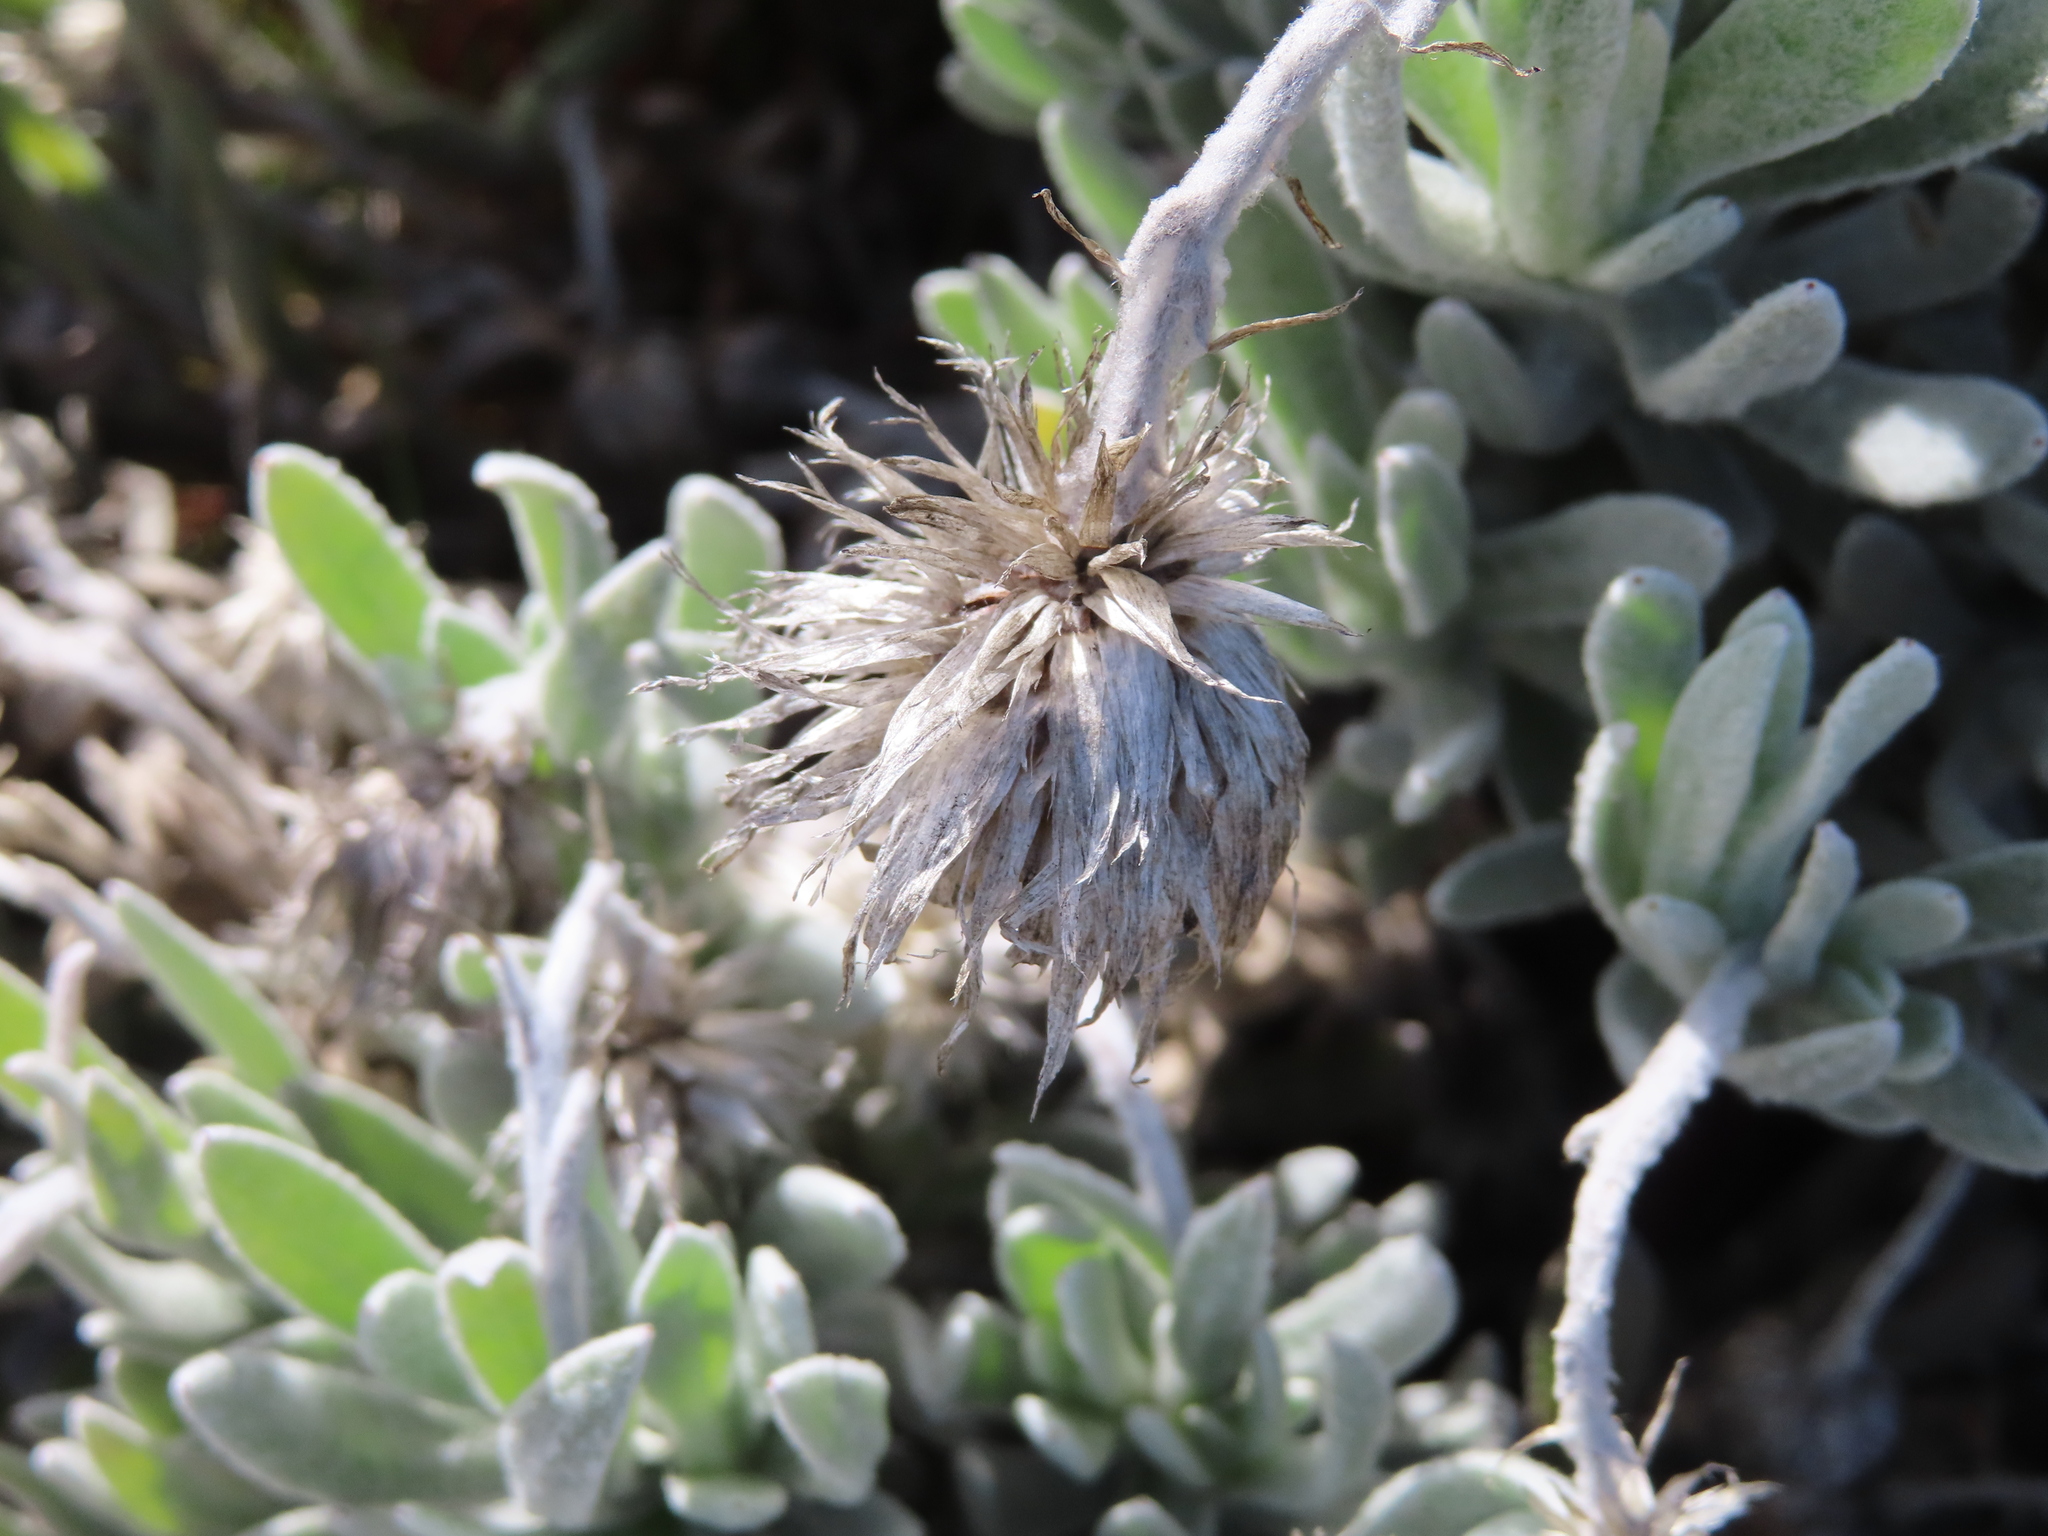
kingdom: Plantae
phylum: Tracheophyta
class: Magnoliopsida
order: Asterales
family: Asteraceae
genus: Syncarpha
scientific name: Syncarpha vestita
